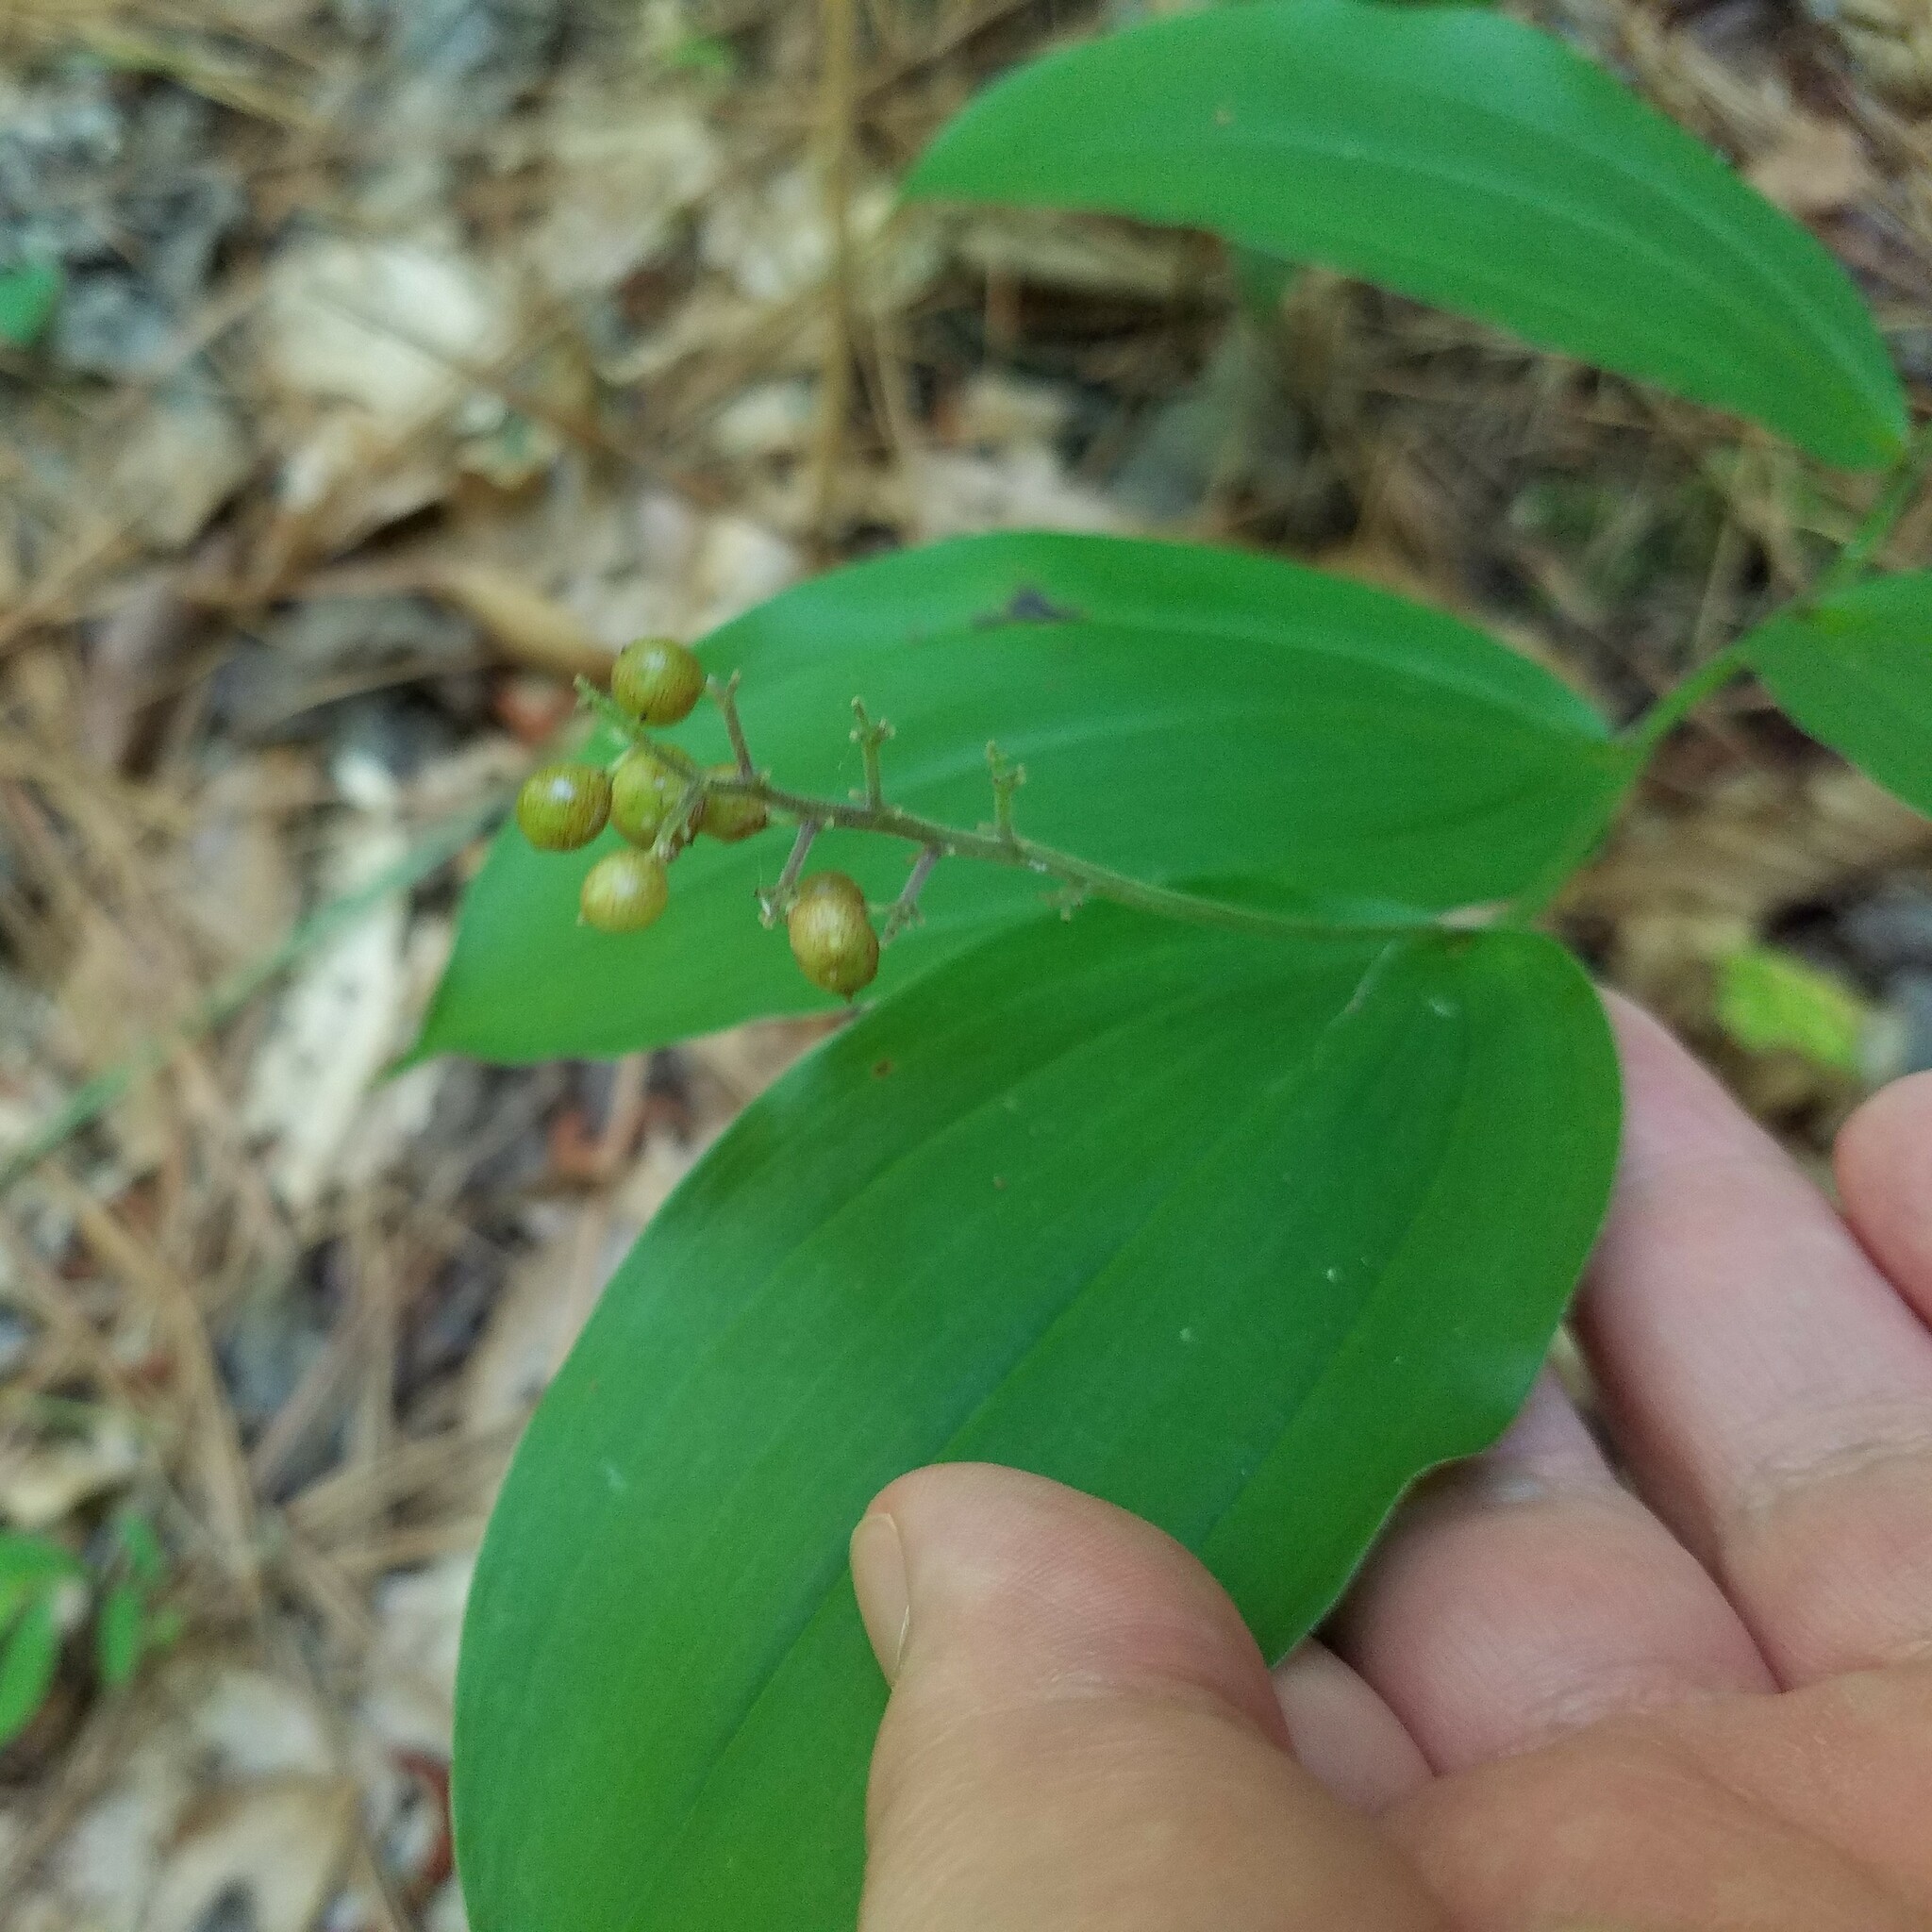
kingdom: Plantae
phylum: Tracheophyta
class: Liliopsida
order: Asparagales
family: Asparagaceae
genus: Maianthemum
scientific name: Maianthemum racemosum
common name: False spikenard
